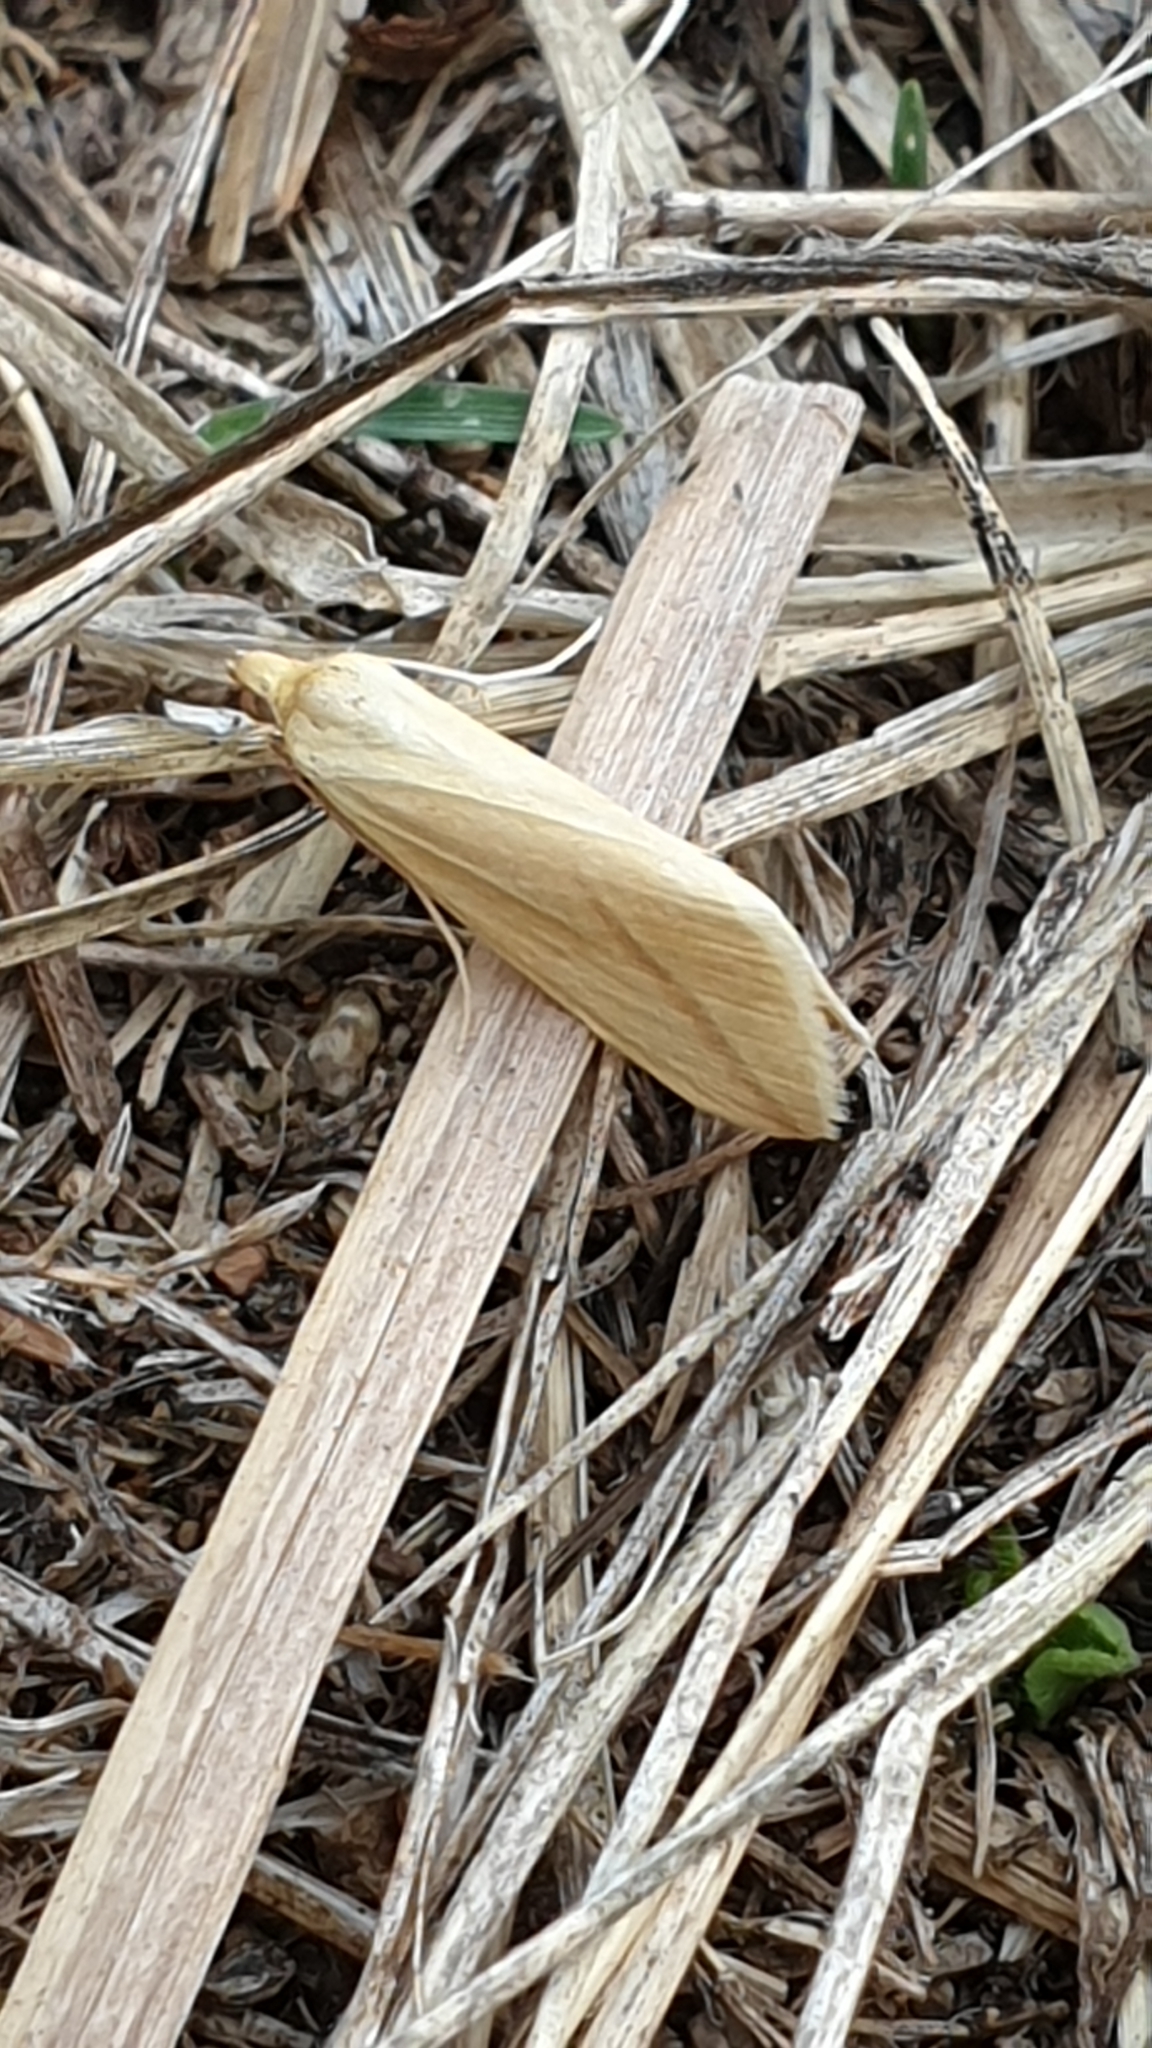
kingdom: Animalia
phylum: Arthropoda
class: Insecta
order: Lepidoptera
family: Geometridae
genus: Rhodometra
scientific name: Rhodometra sacraria
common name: Vestal
